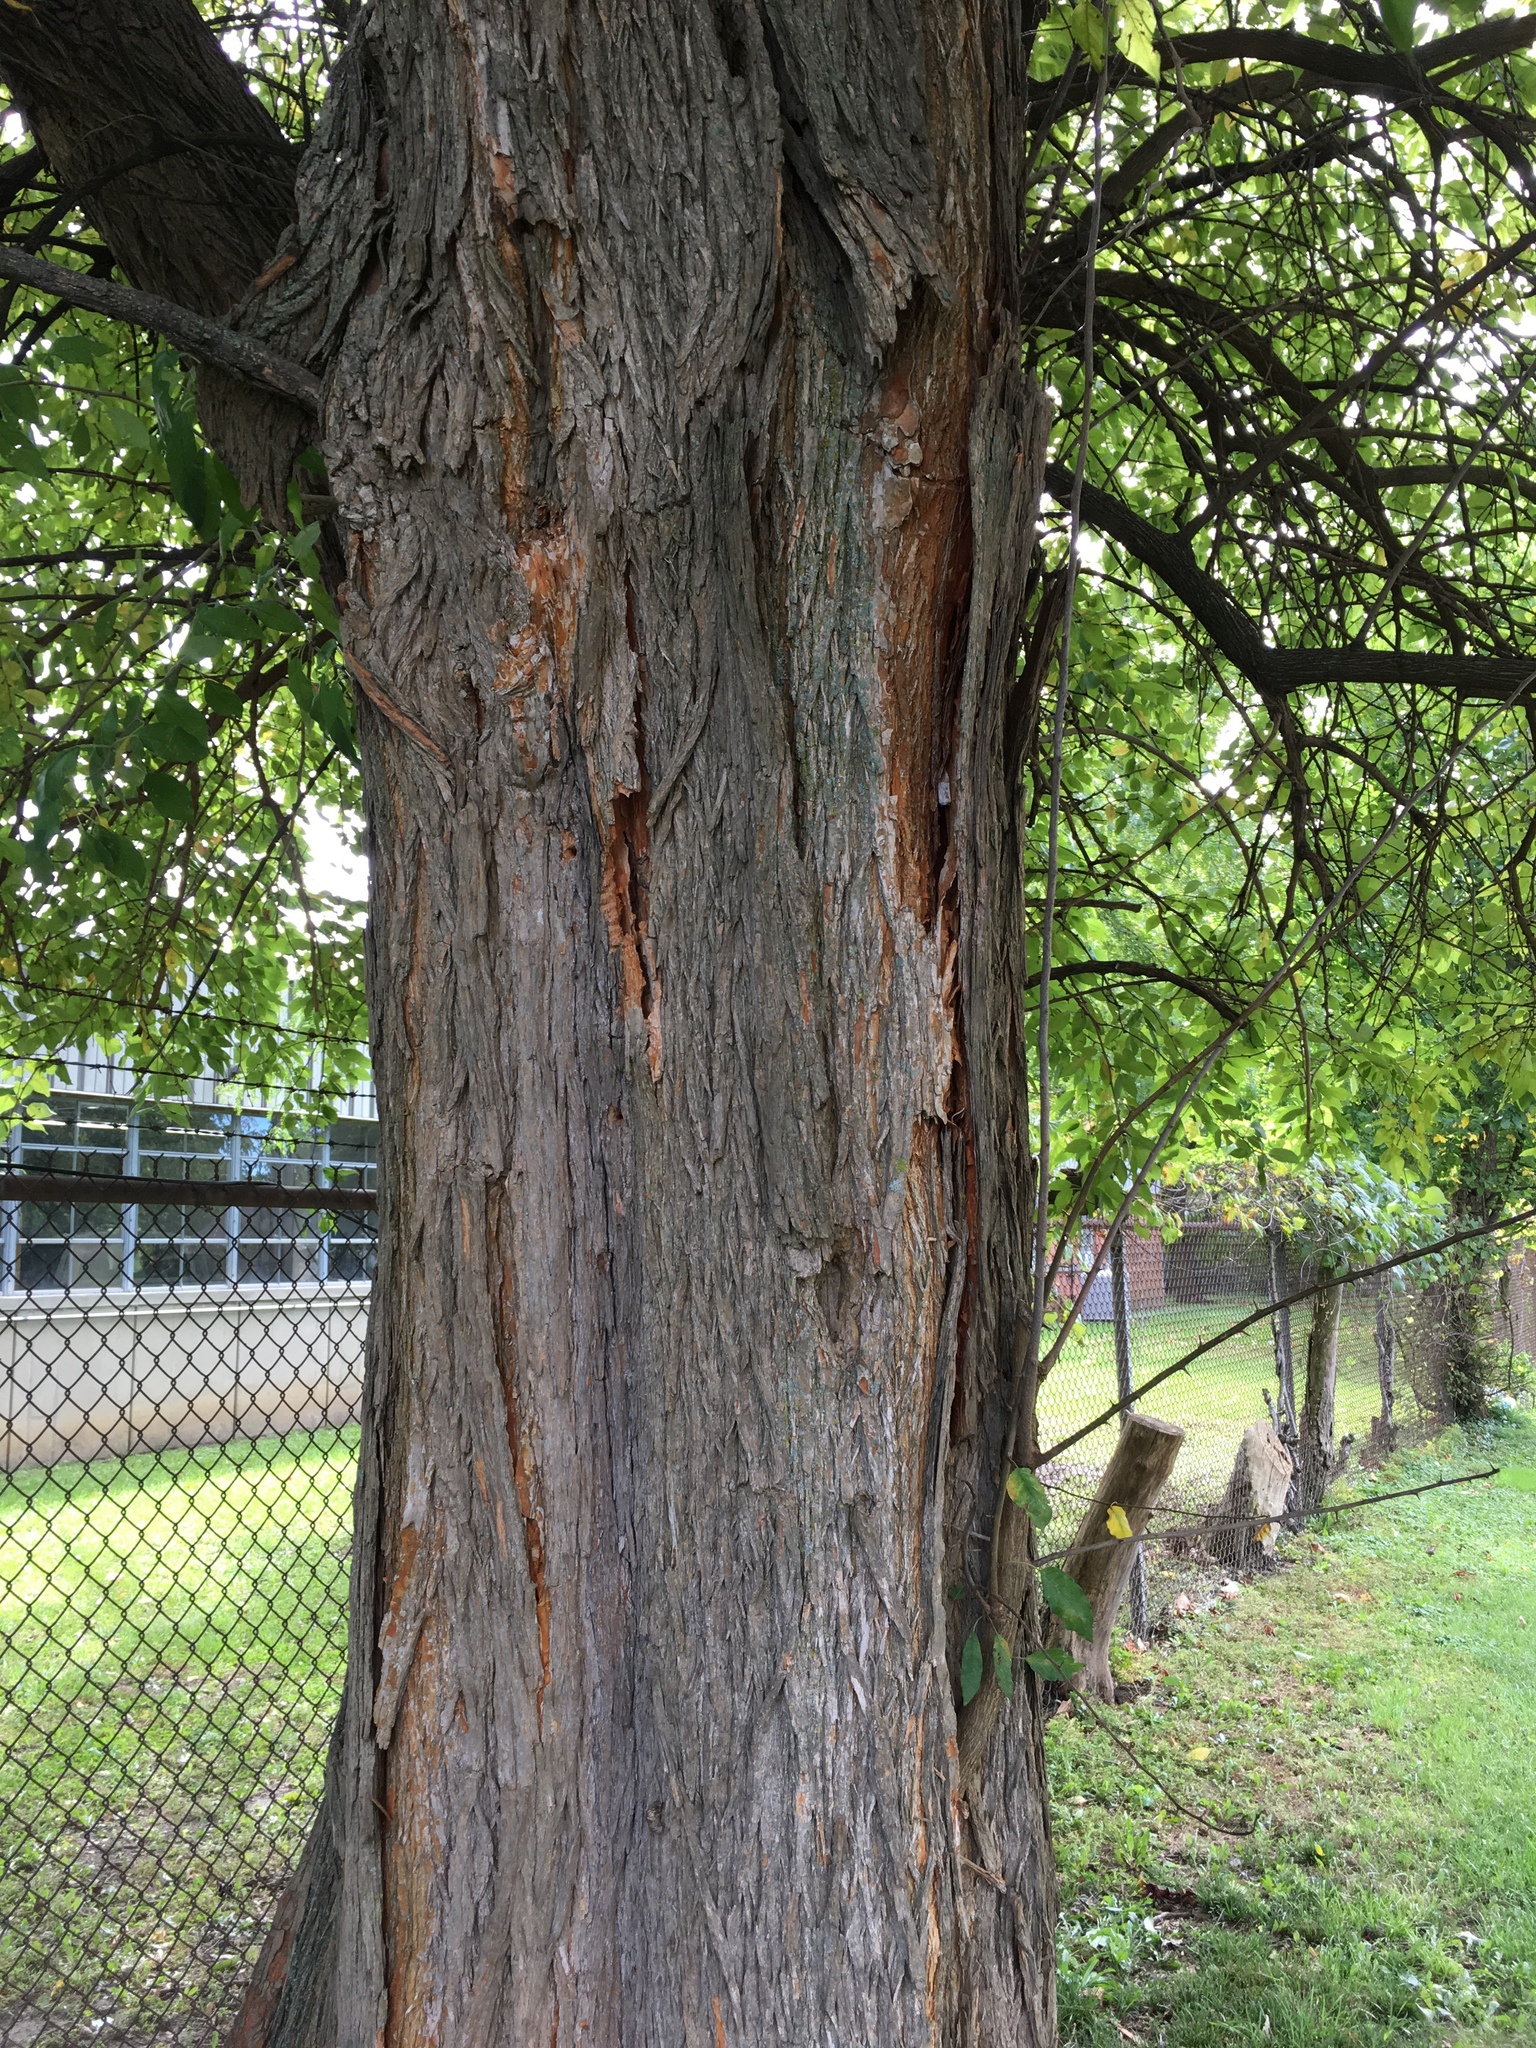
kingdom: Plantae
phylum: Tracheophyta
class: Magnoliopsida
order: Rosales
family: Moraceae
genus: Maclura
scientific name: Maclura pomifera
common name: Osage-orange
